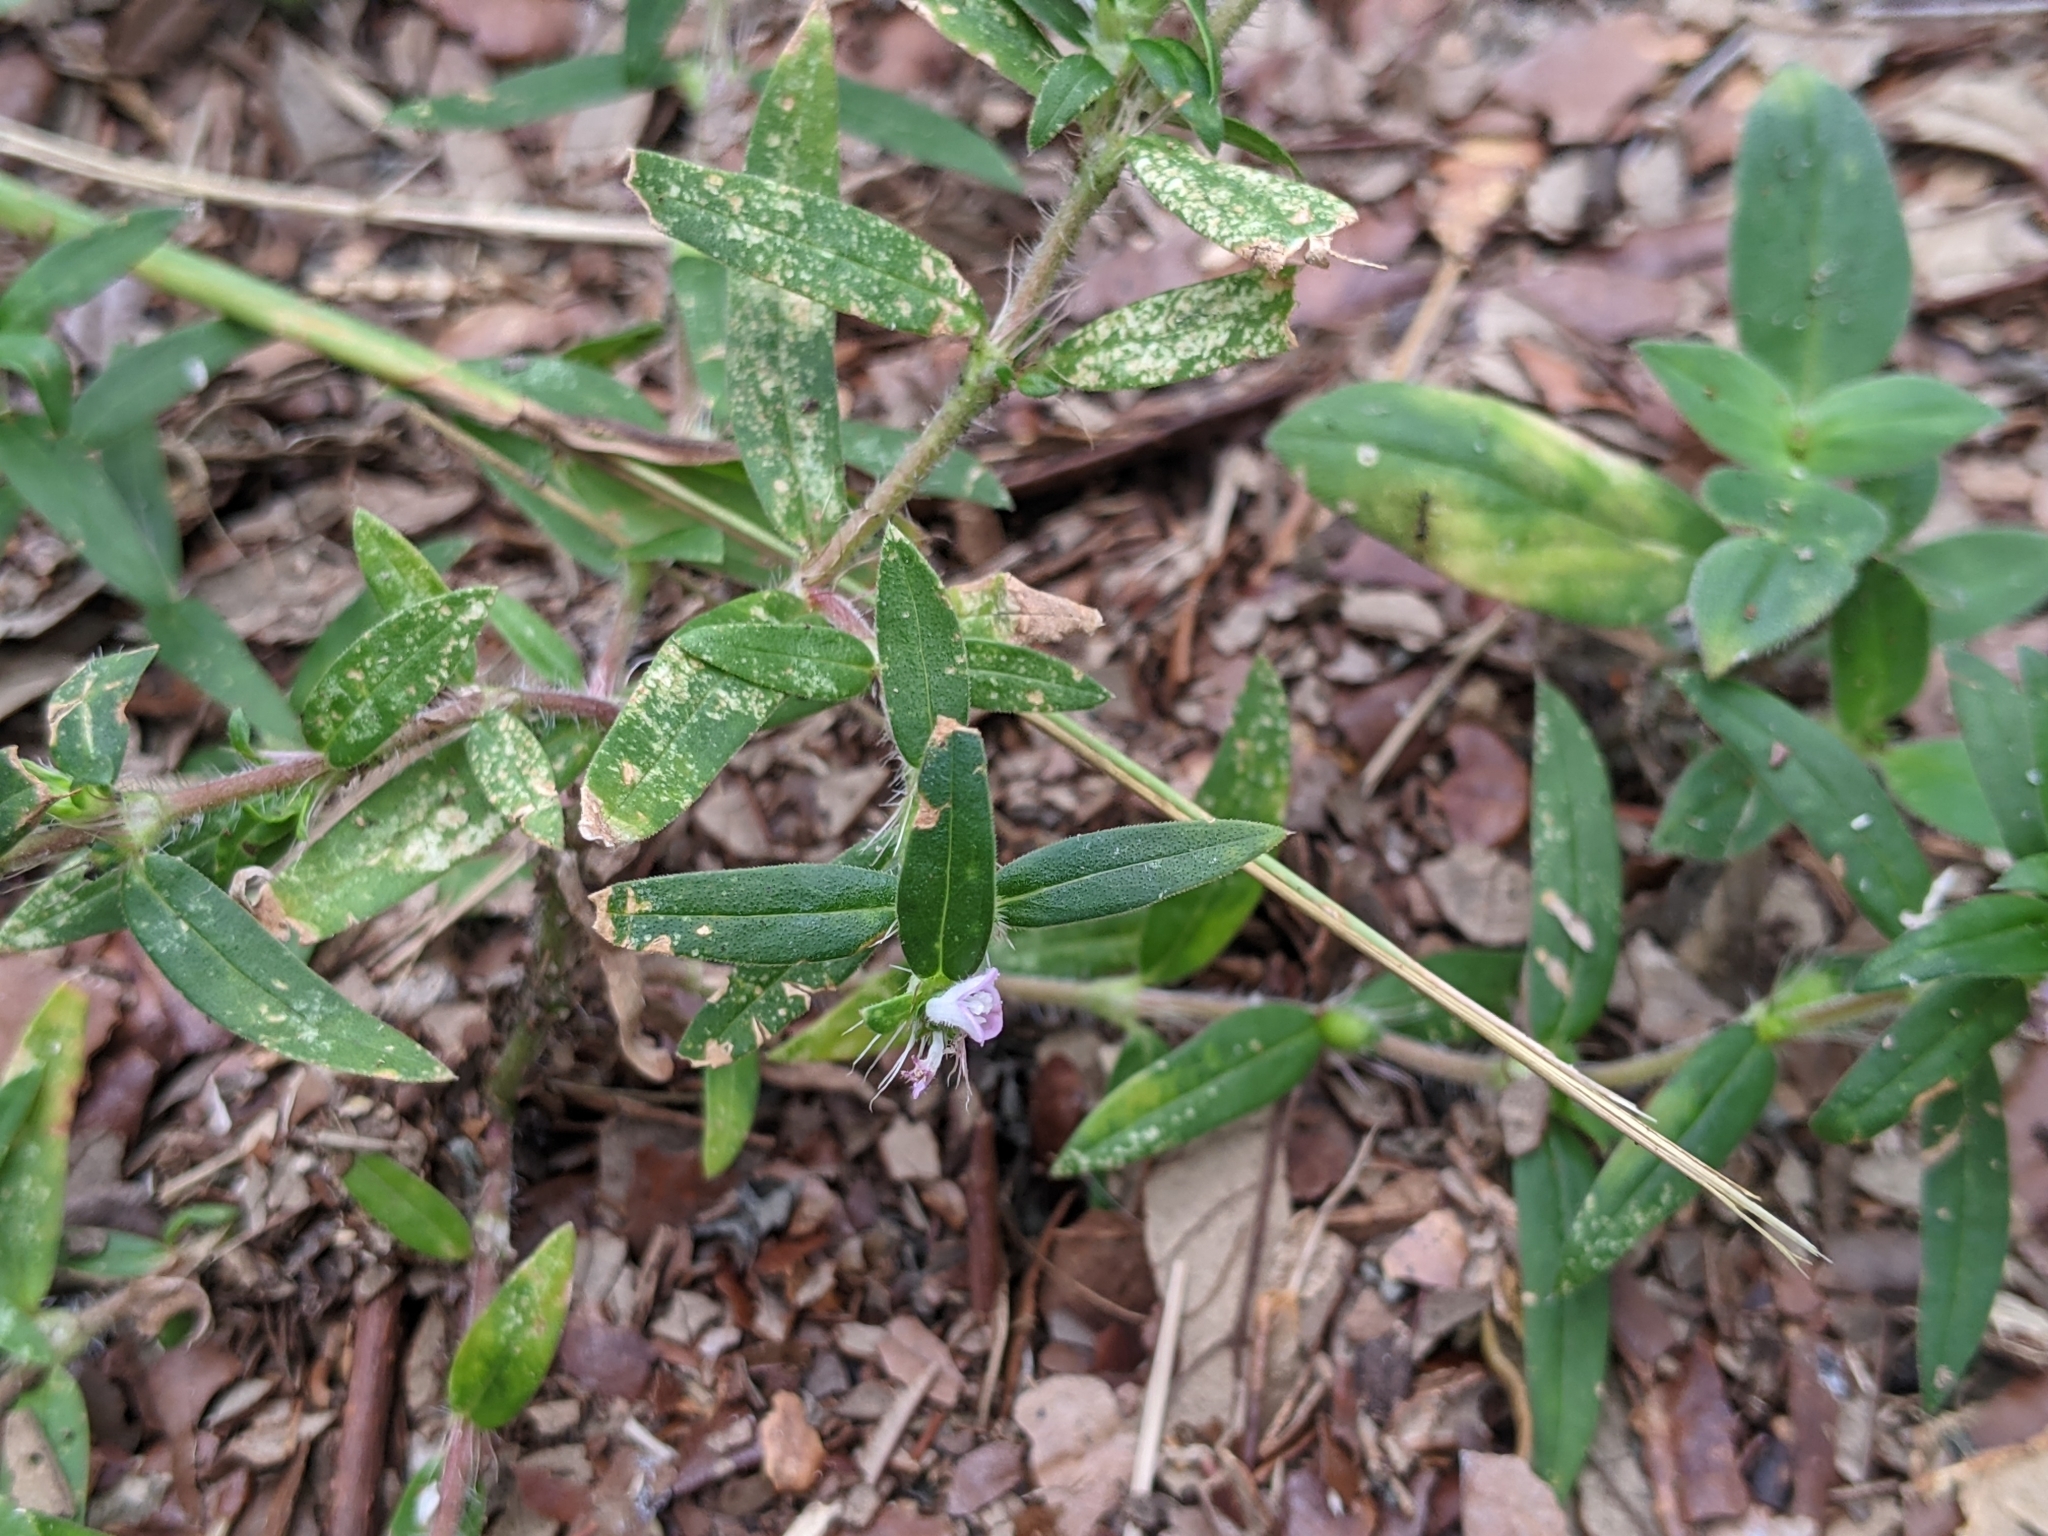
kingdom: Plantae
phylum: Tracheophyta
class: Magnoliopsida
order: Gentianales
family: Rubiaceae
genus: Hexasepalum
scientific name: Hexasepalum teres
